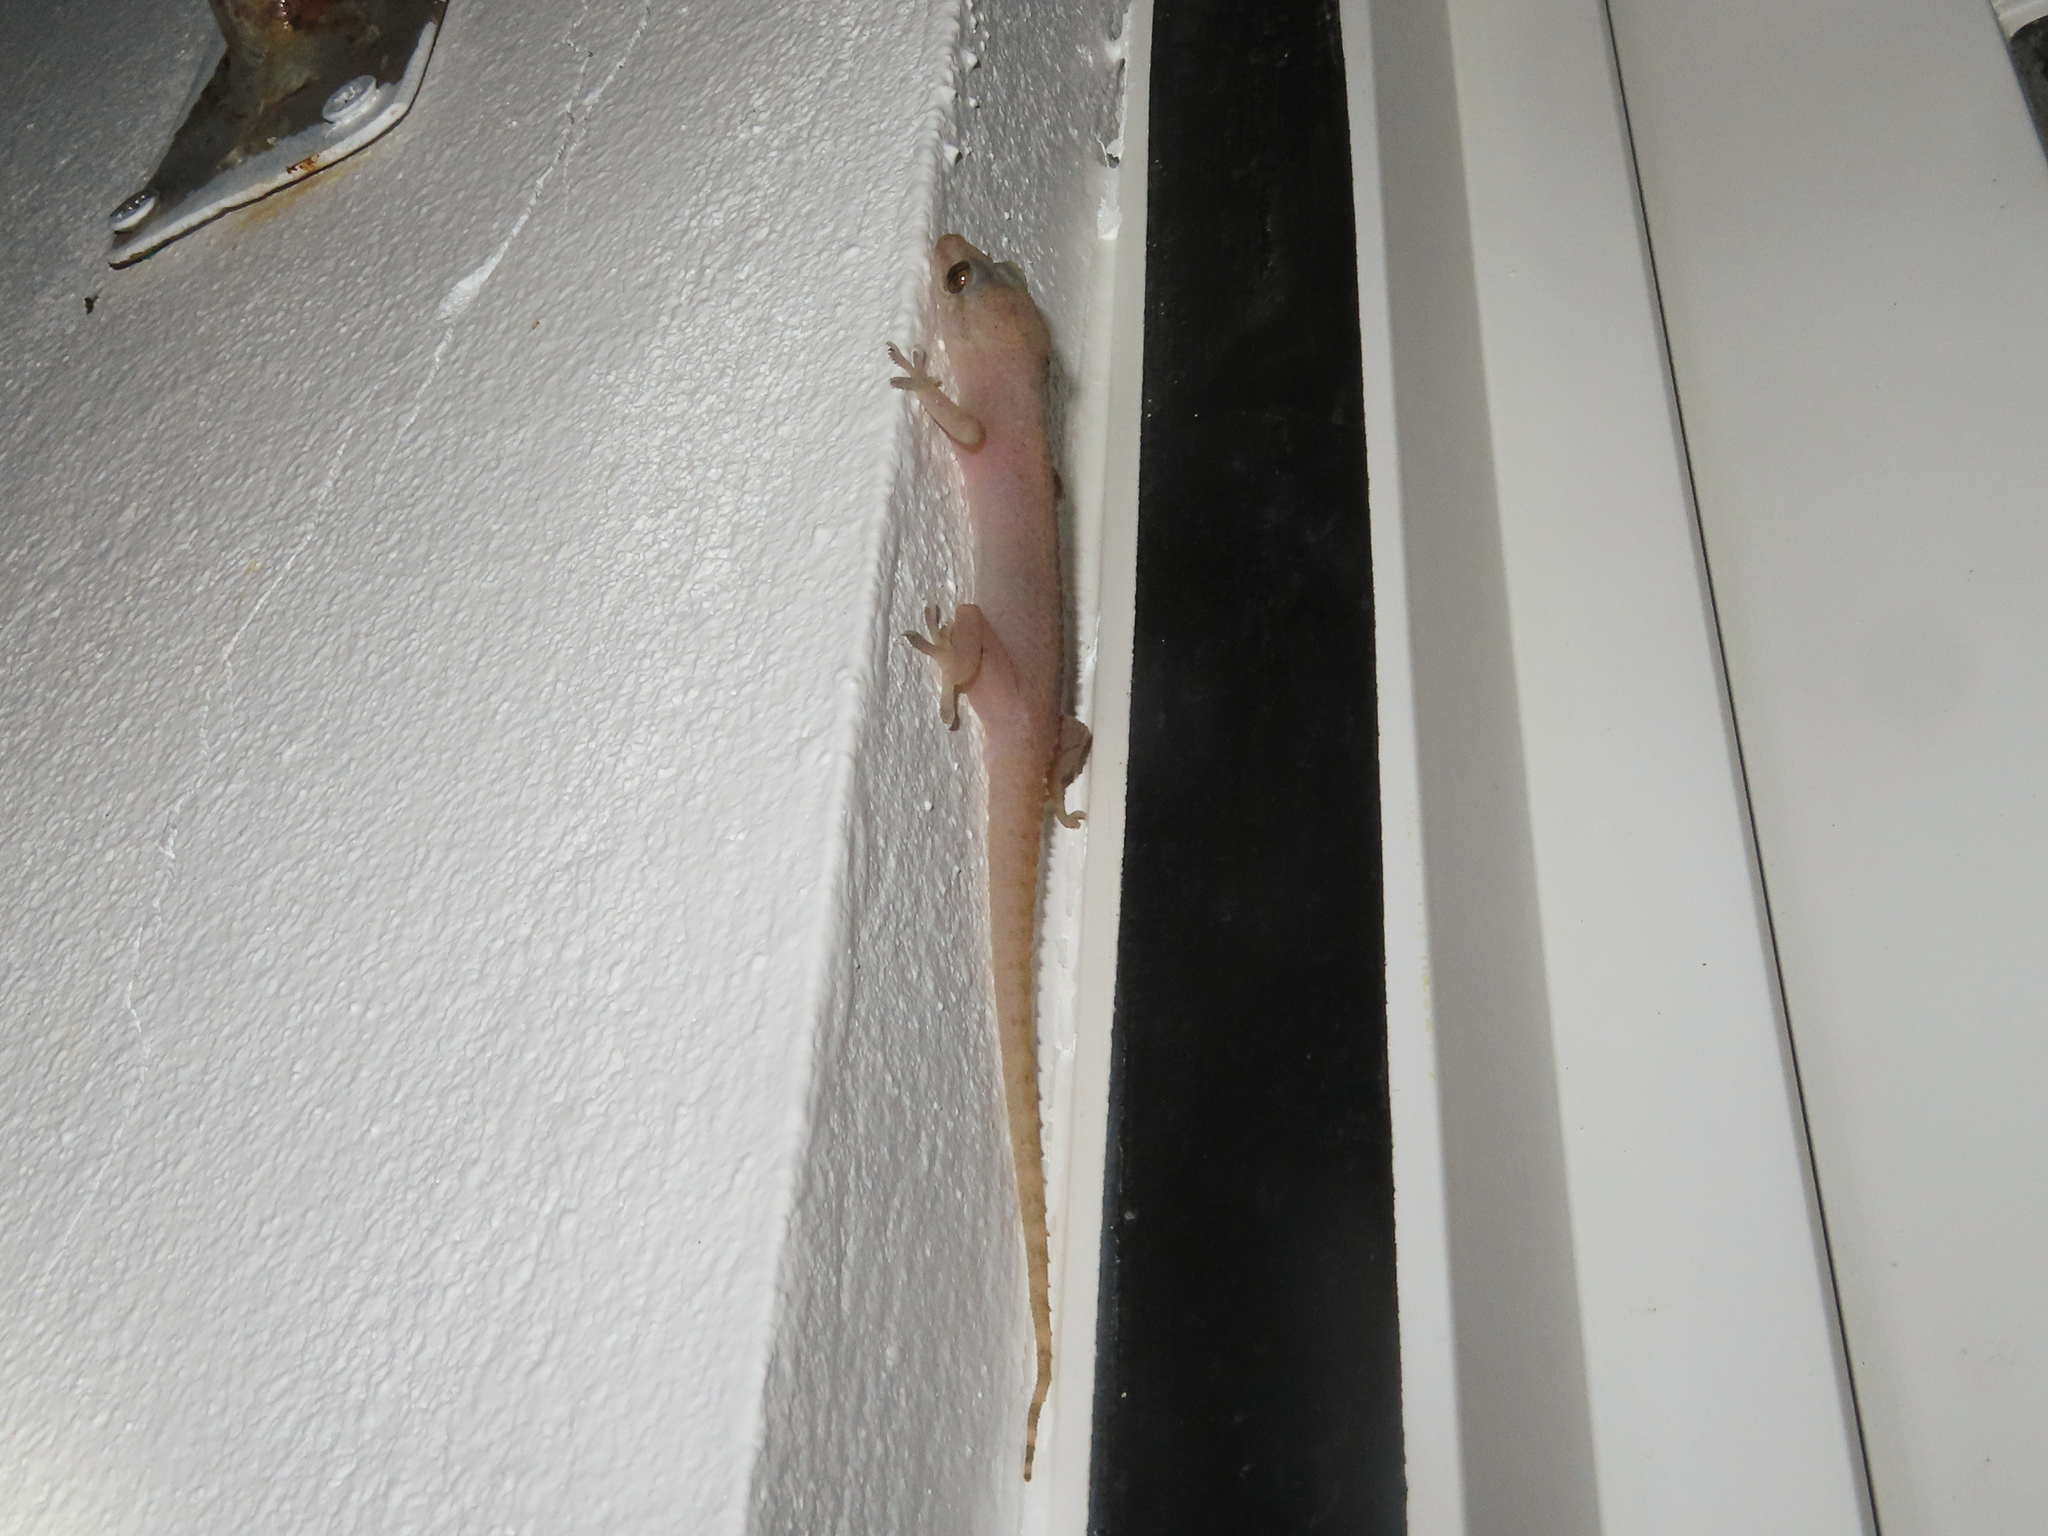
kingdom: Animalia
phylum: Chordata
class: Squamata
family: Gekkonidae
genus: Hemidactylus
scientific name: Hemidactylus frenatus
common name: Common house gecko
